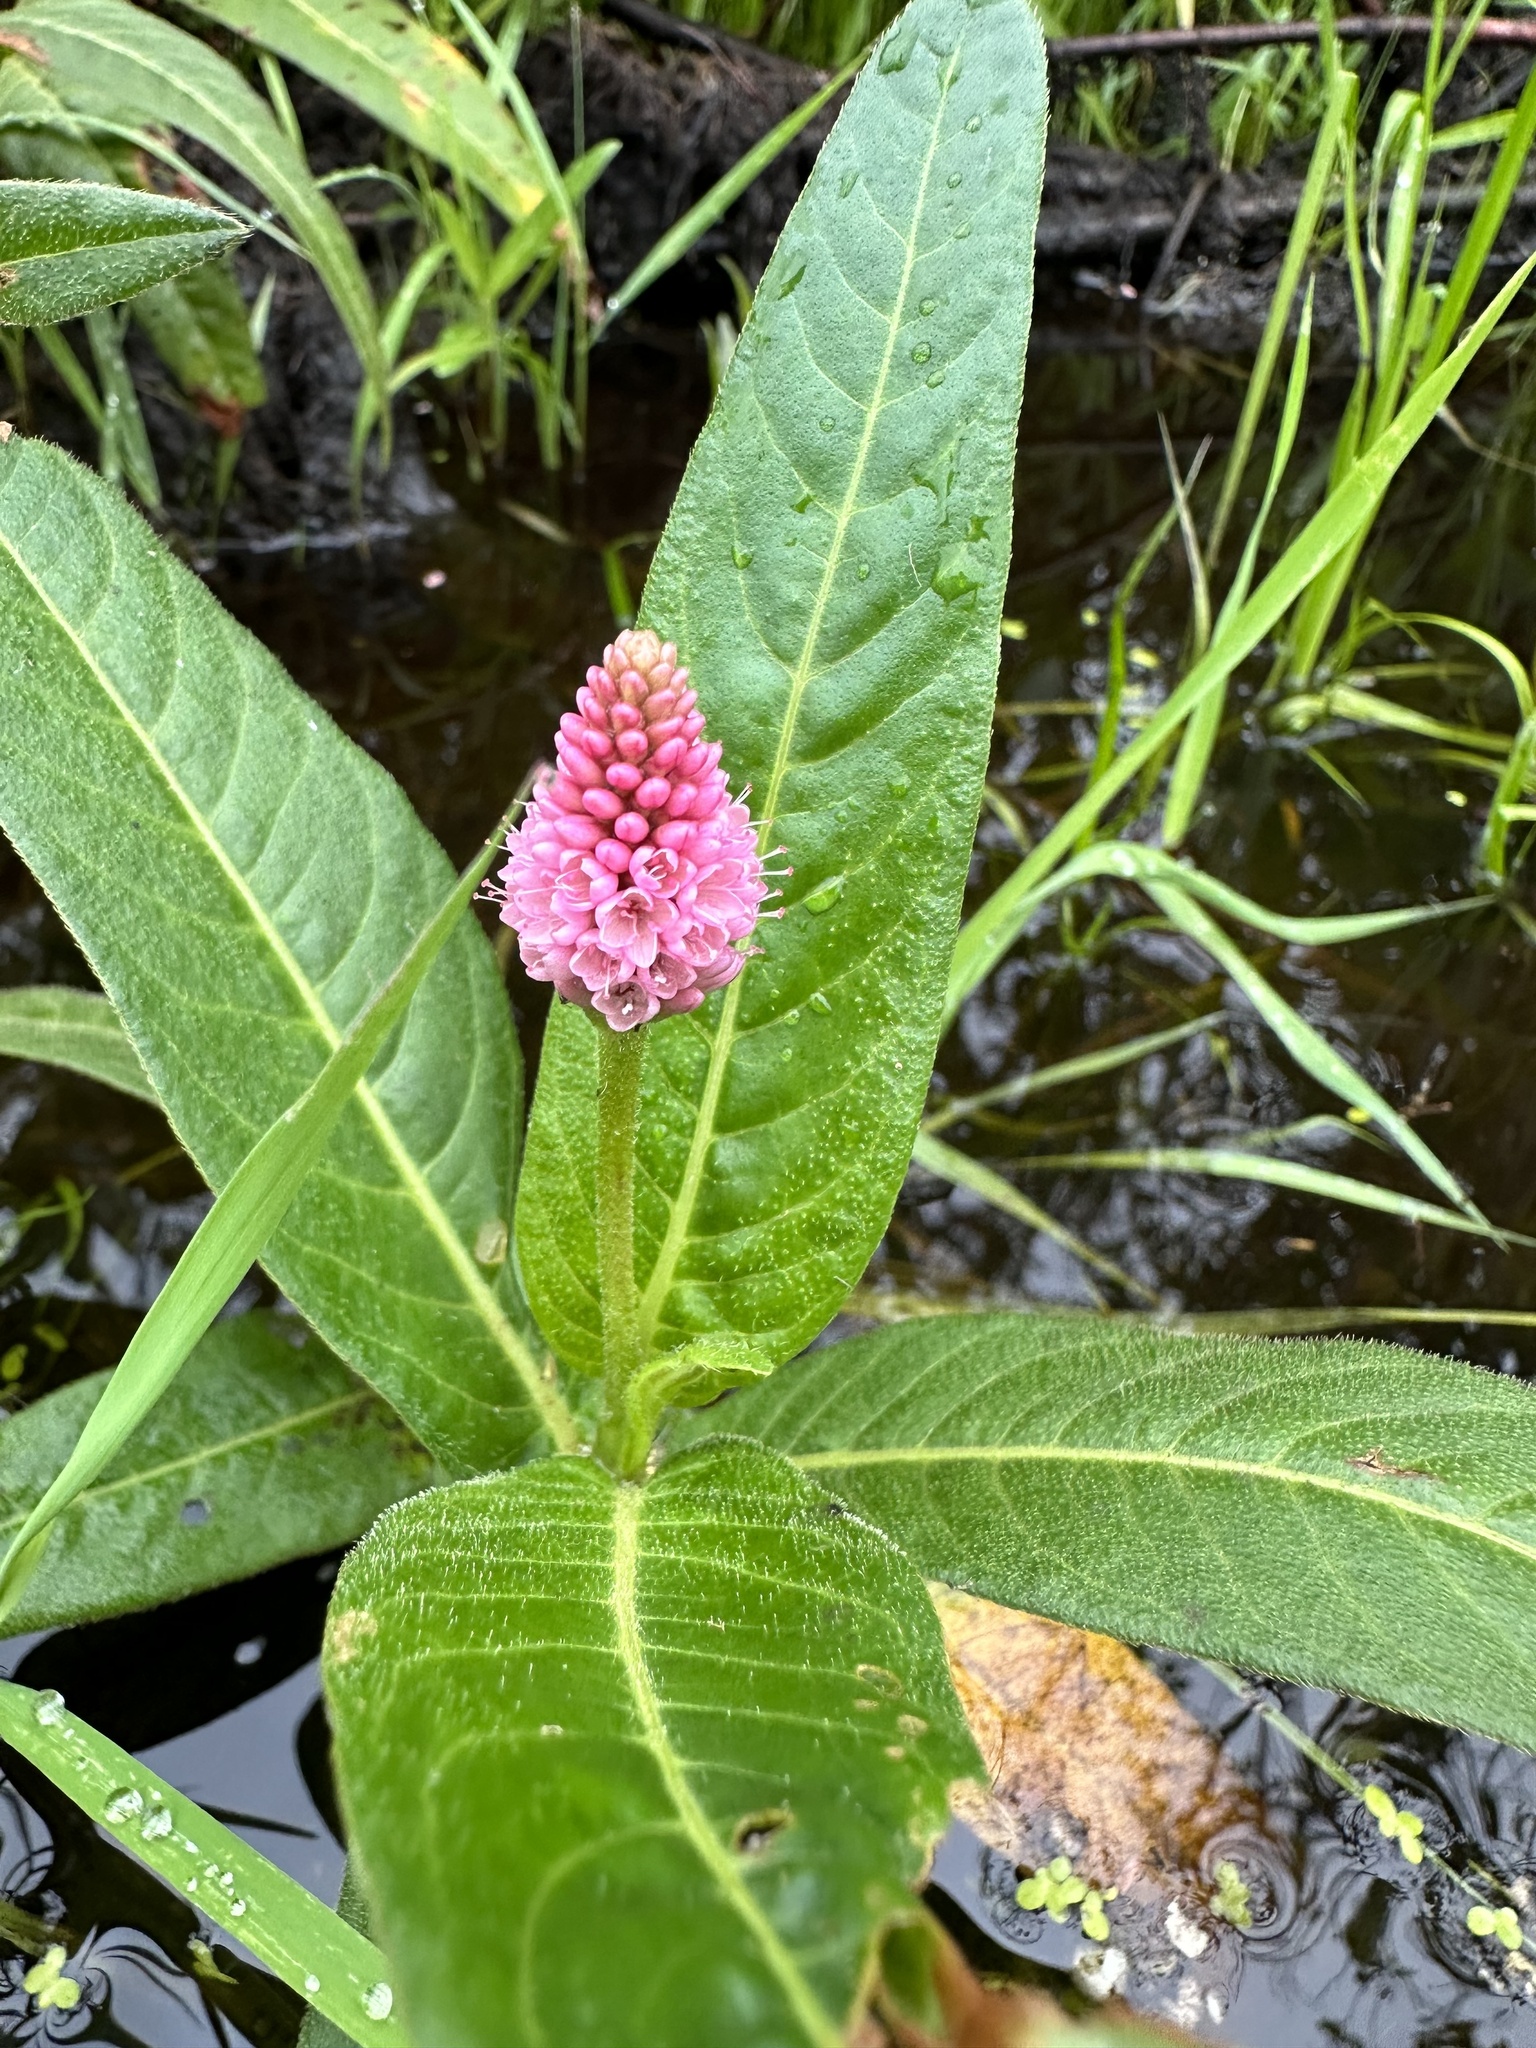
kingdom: Plantae
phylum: Tracheophyta
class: Magnoliopsida
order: Caryophyllales
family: Polygonaceae
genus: Persicaria
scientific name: Persicaria amphibia
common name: Amphibious bistort
